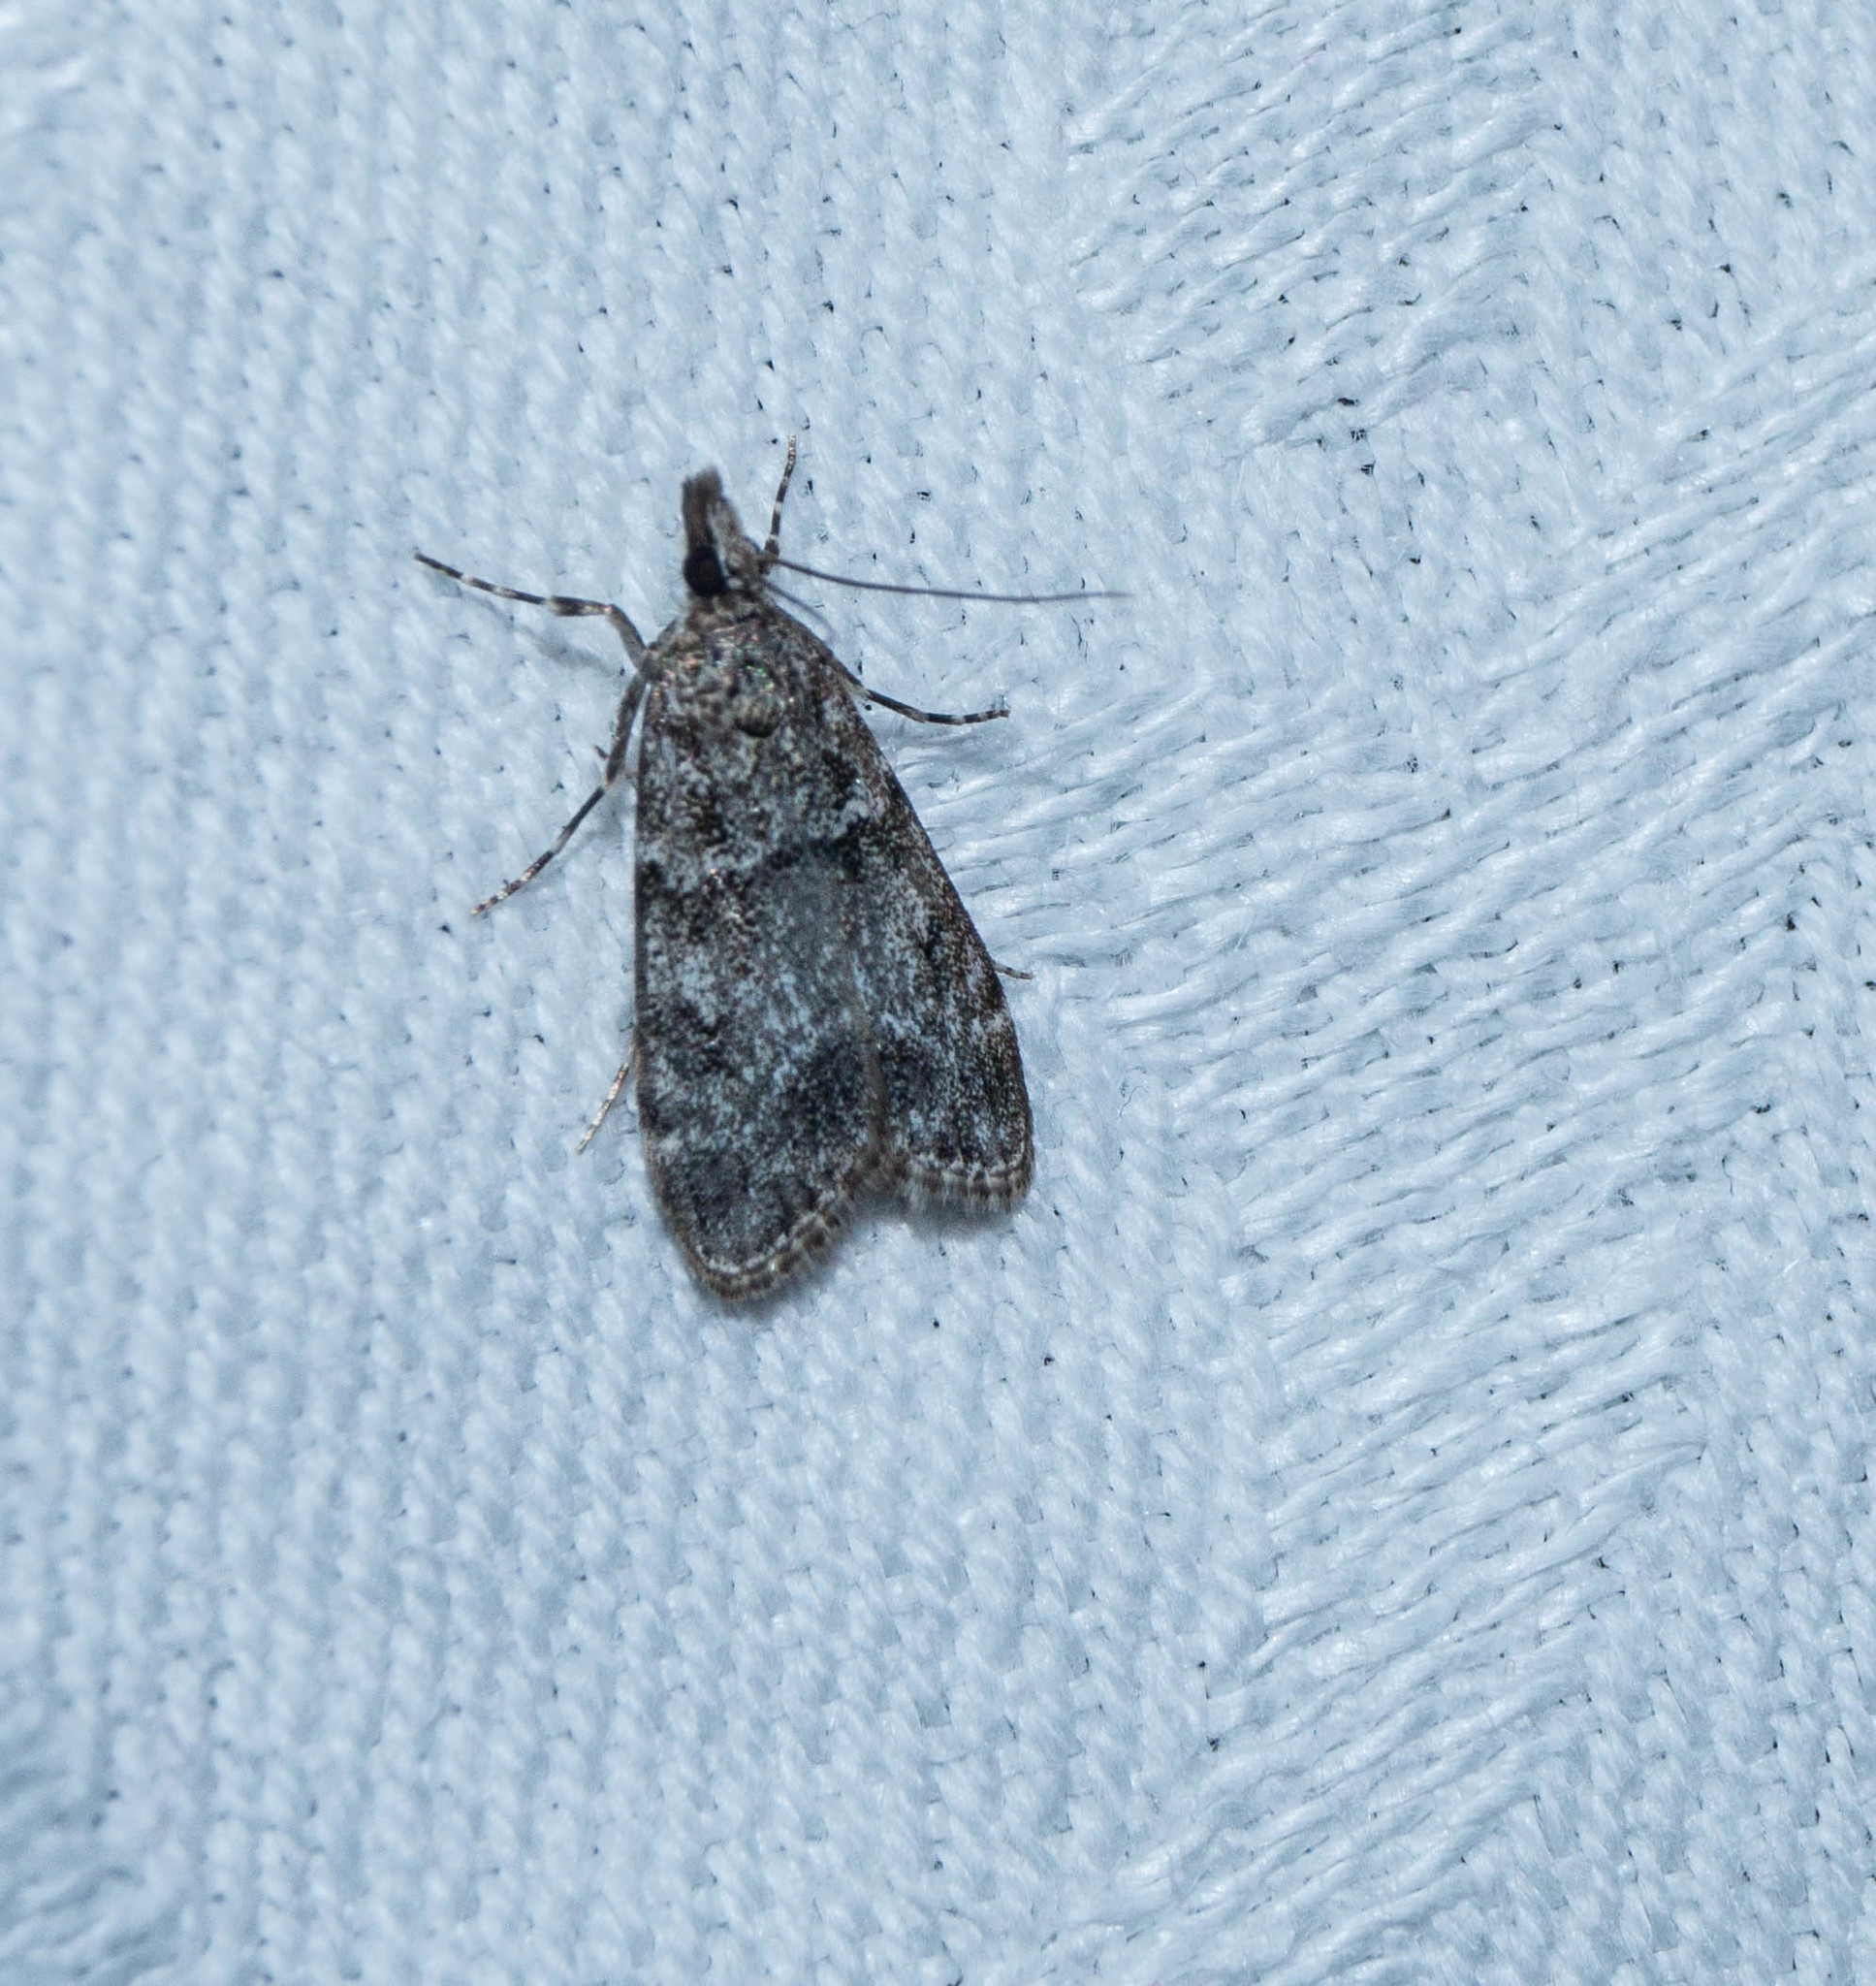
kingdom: Animalia
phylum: Arthropoda
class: Insecta
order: Lepidoptera
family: Crambidae
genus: Eudonia
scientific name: Eudonia mercurella
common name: Small grey
